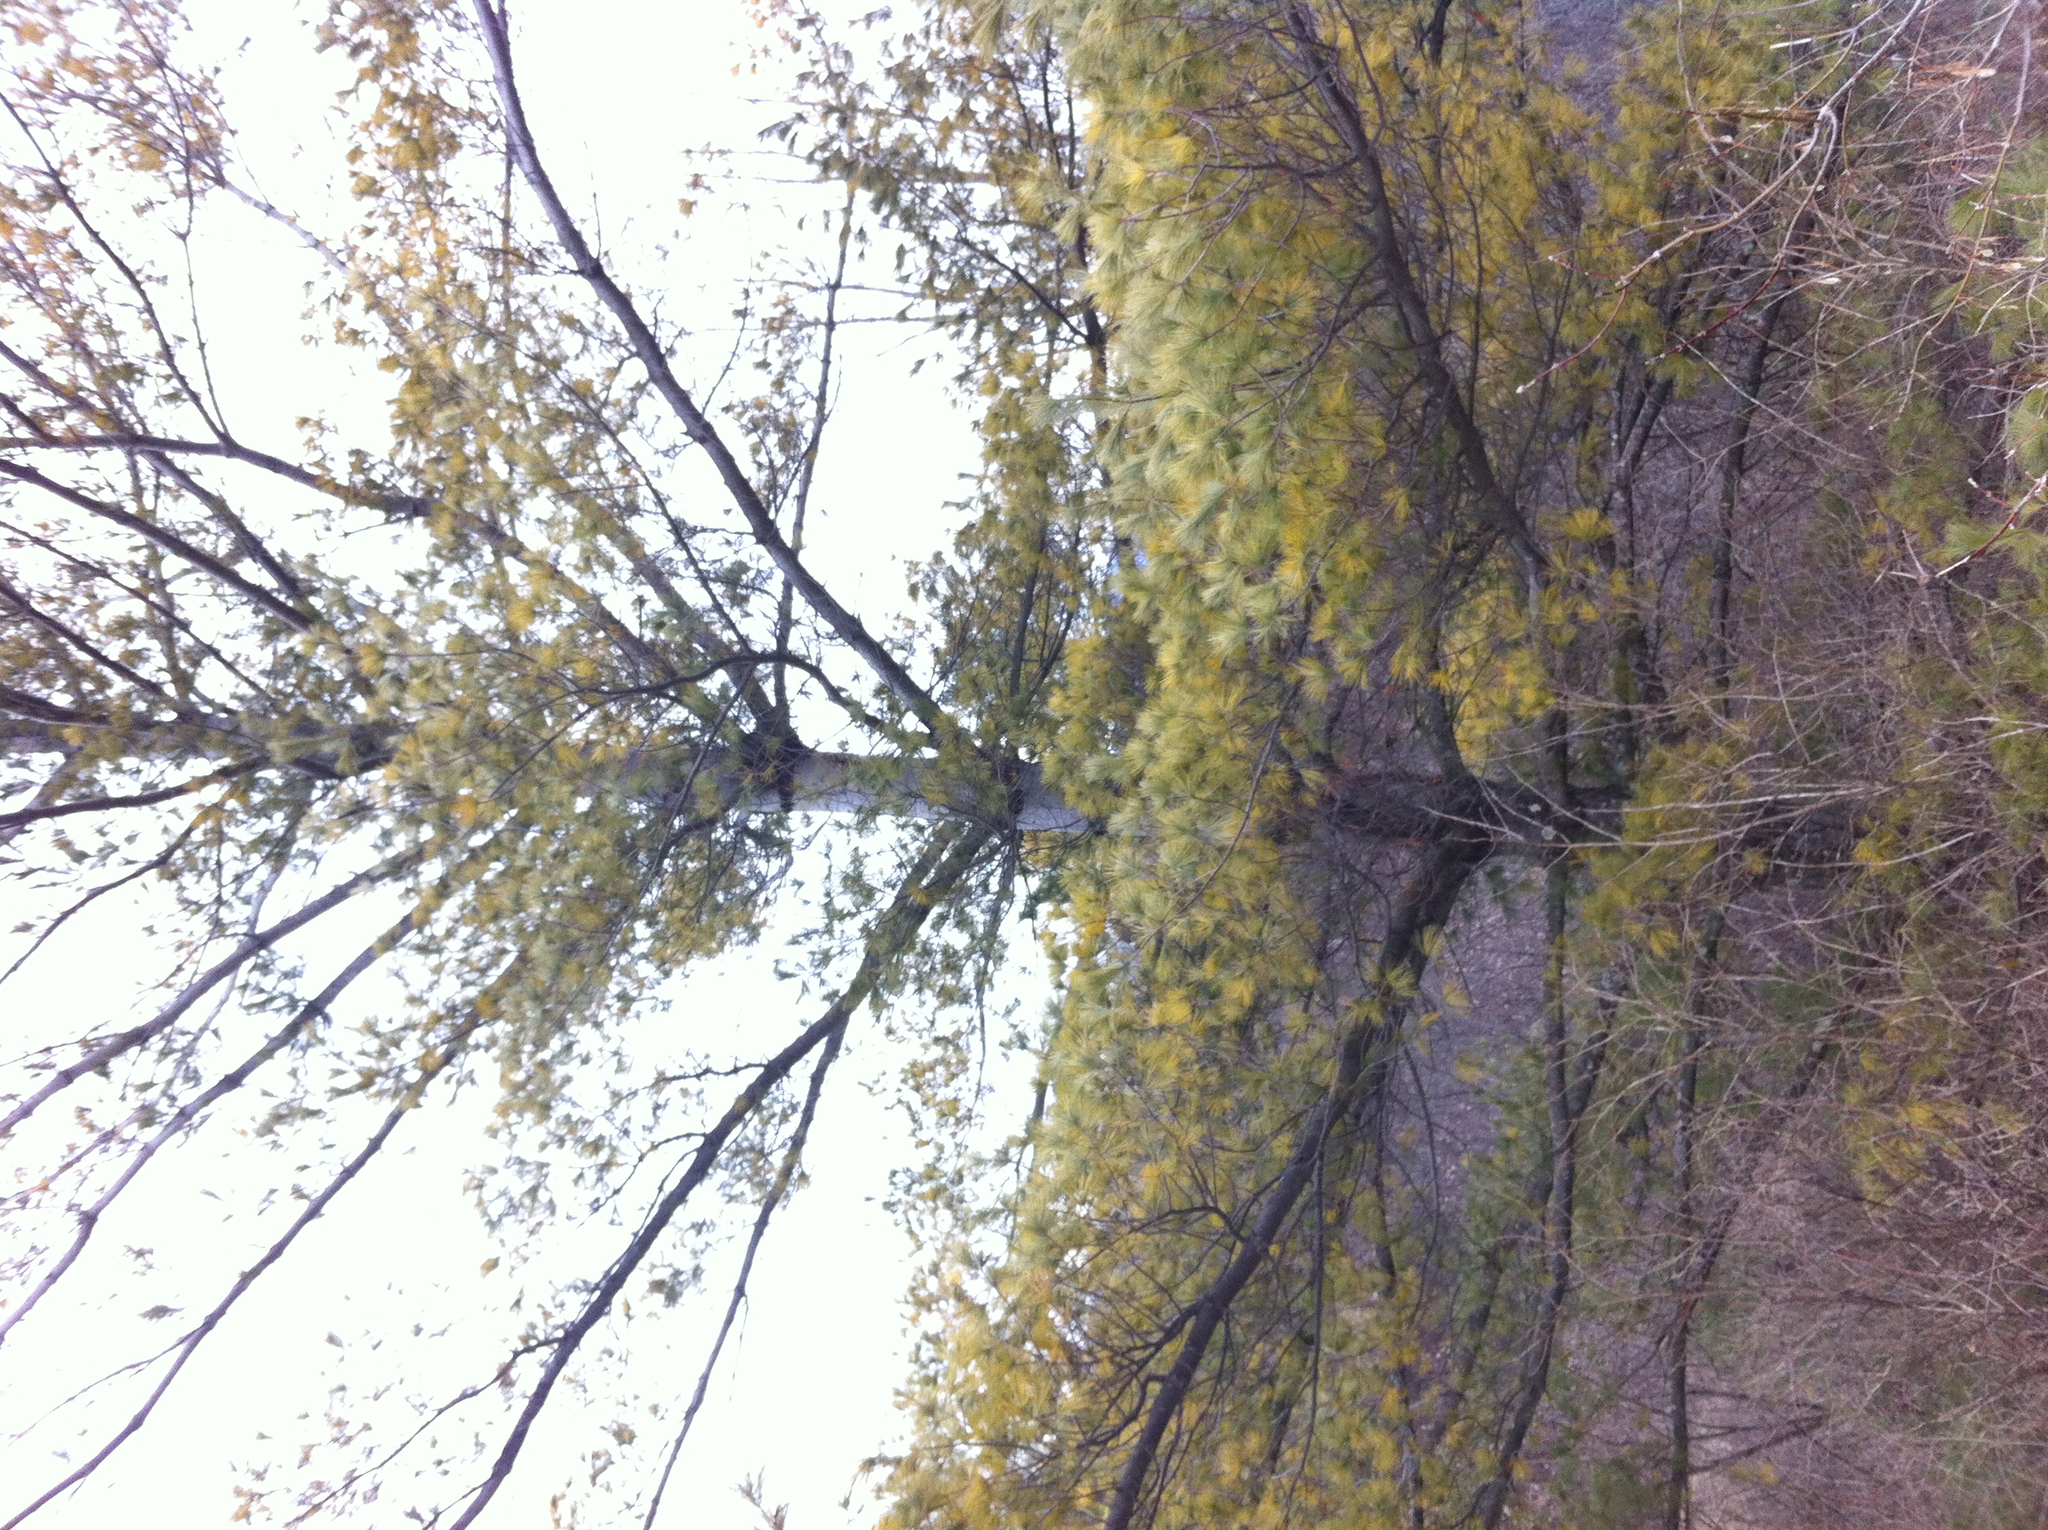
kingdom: Plantae
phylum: Tracheophyta
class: Pinopsida
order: Pinales
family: Pinaceae
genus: Pinus
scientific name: Pinus strobus
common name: Weymouth pine
